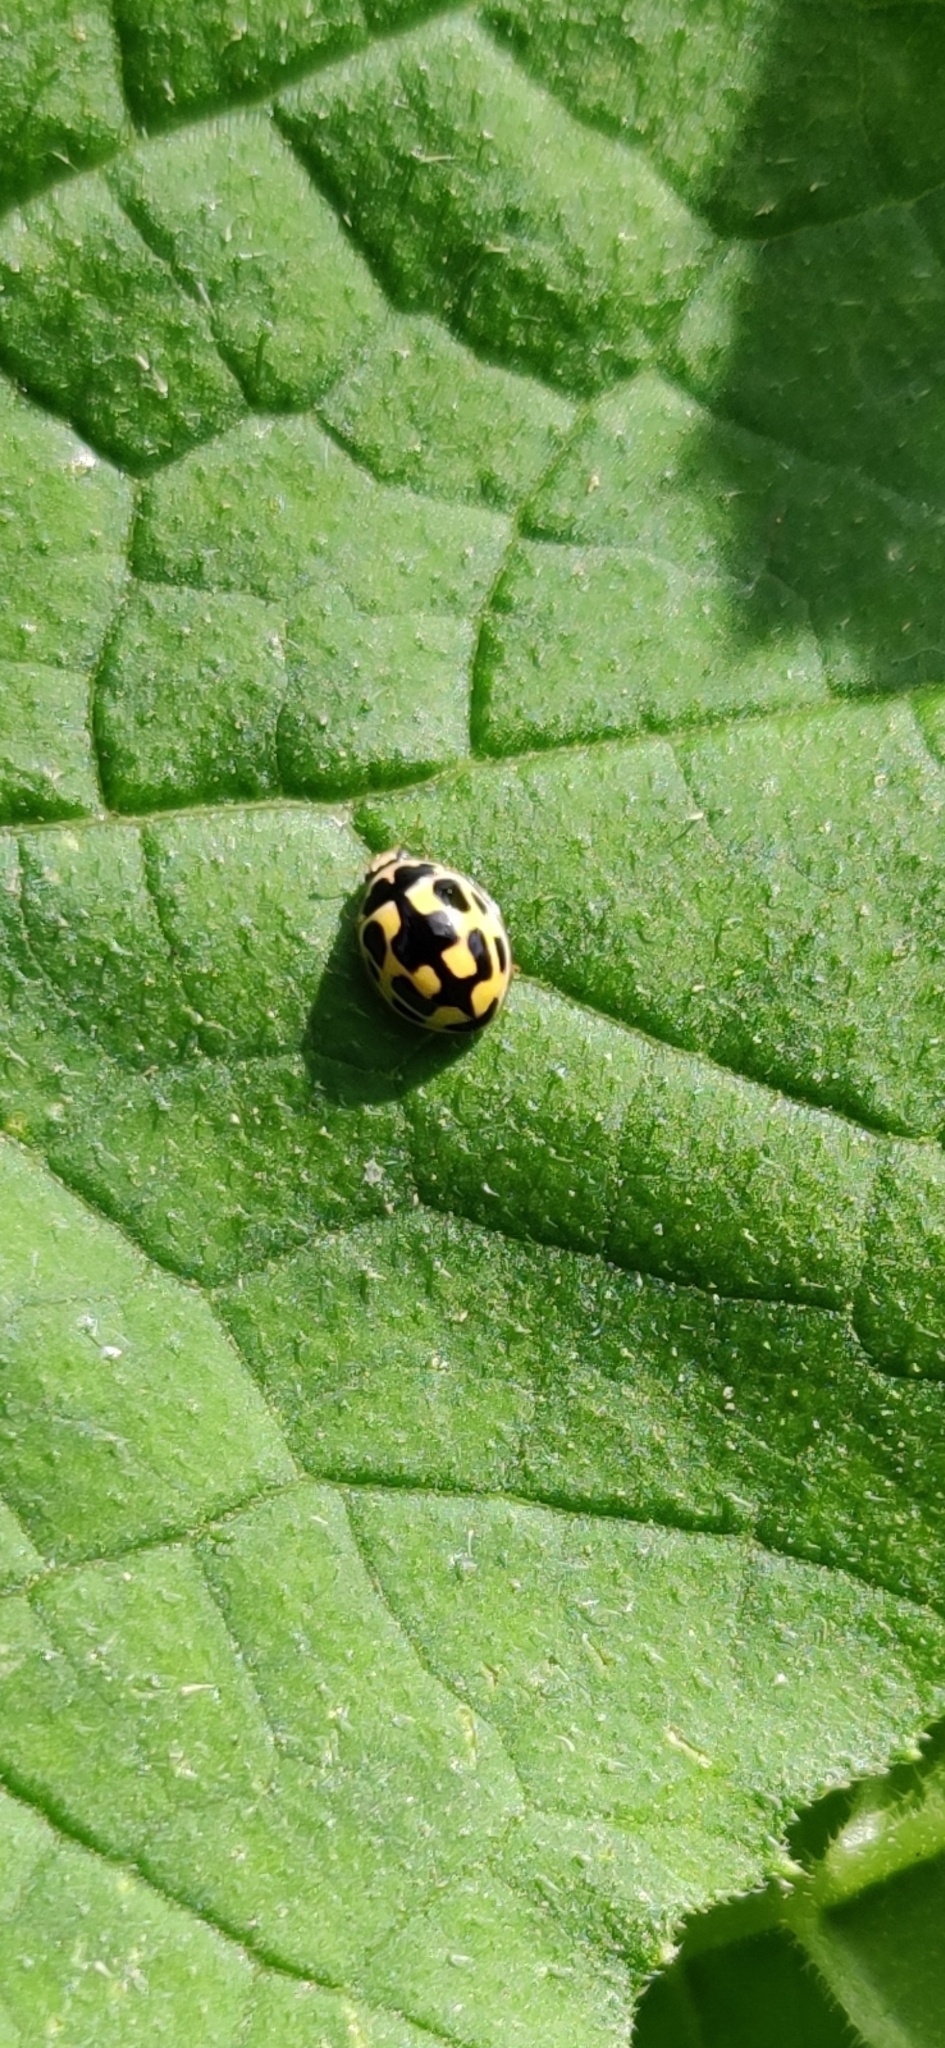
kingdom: Animalia
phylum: Arthropoda
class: Insecta
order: Coleoptera
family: Coccinellidae
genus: Propylaea
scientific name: Propylaea quatuordecimpunctata
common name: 14-spotted ladybird beetle
